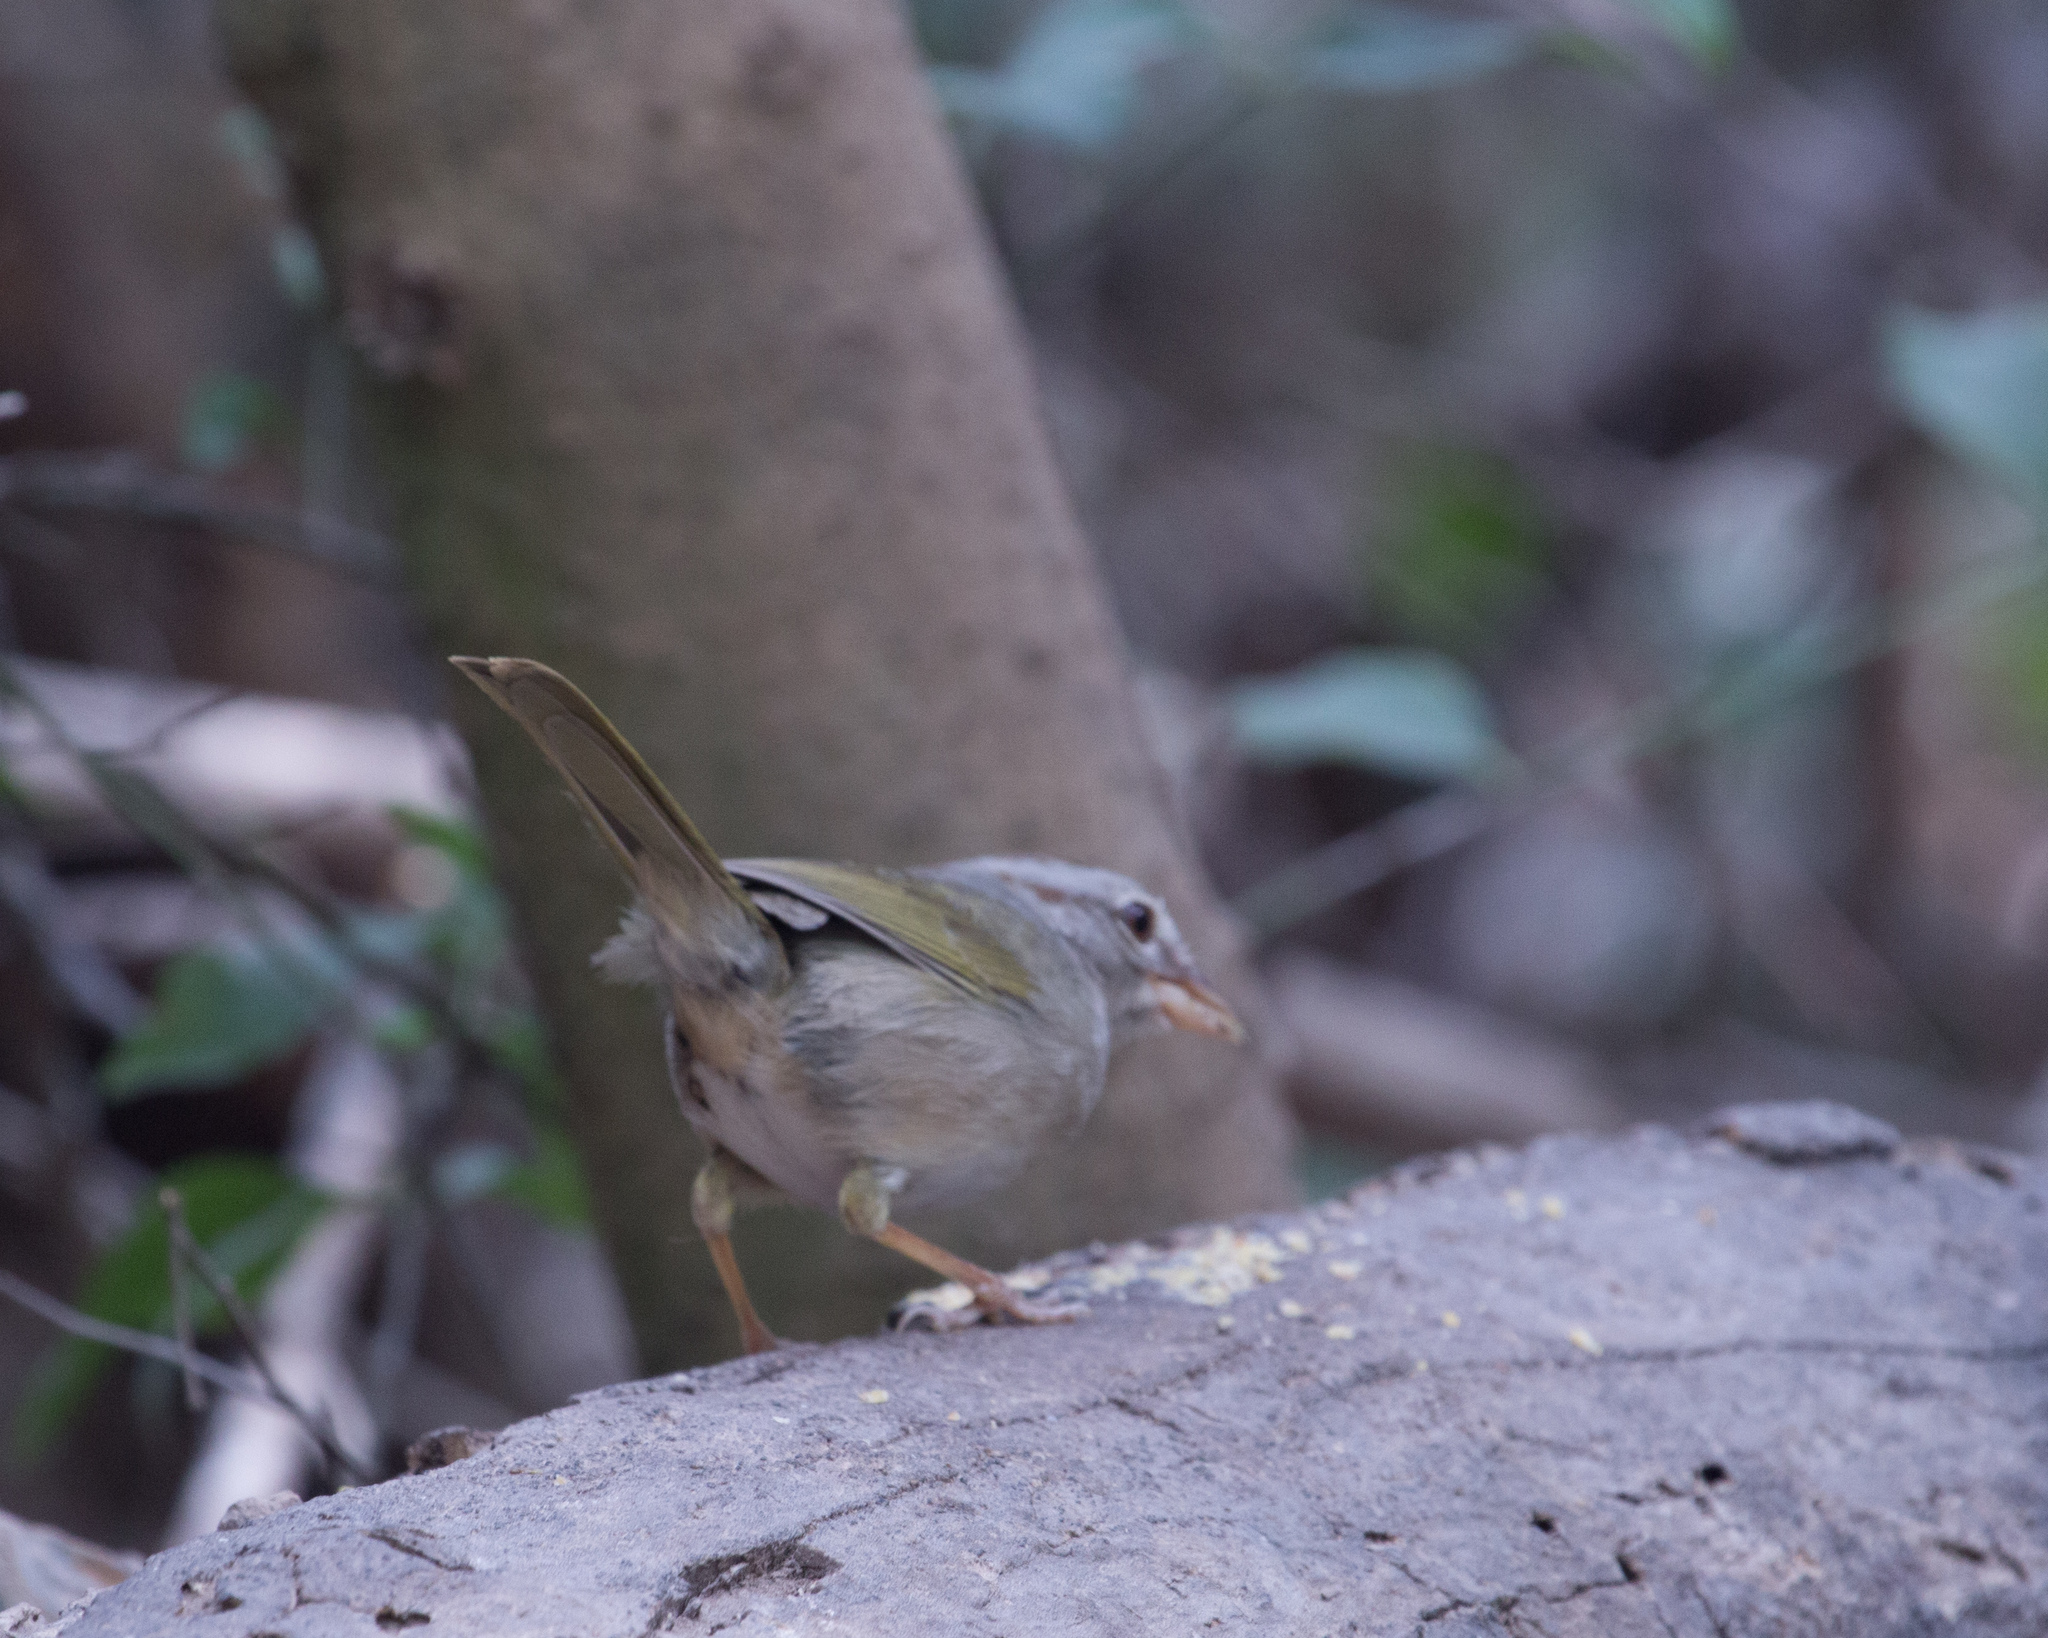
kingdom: Animalia
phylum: Chordata
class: Aves
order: Passeriformes
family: Passerellidae
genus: Arremonops
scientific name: Arremonops rufivirgatus
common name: Olive sparrow
